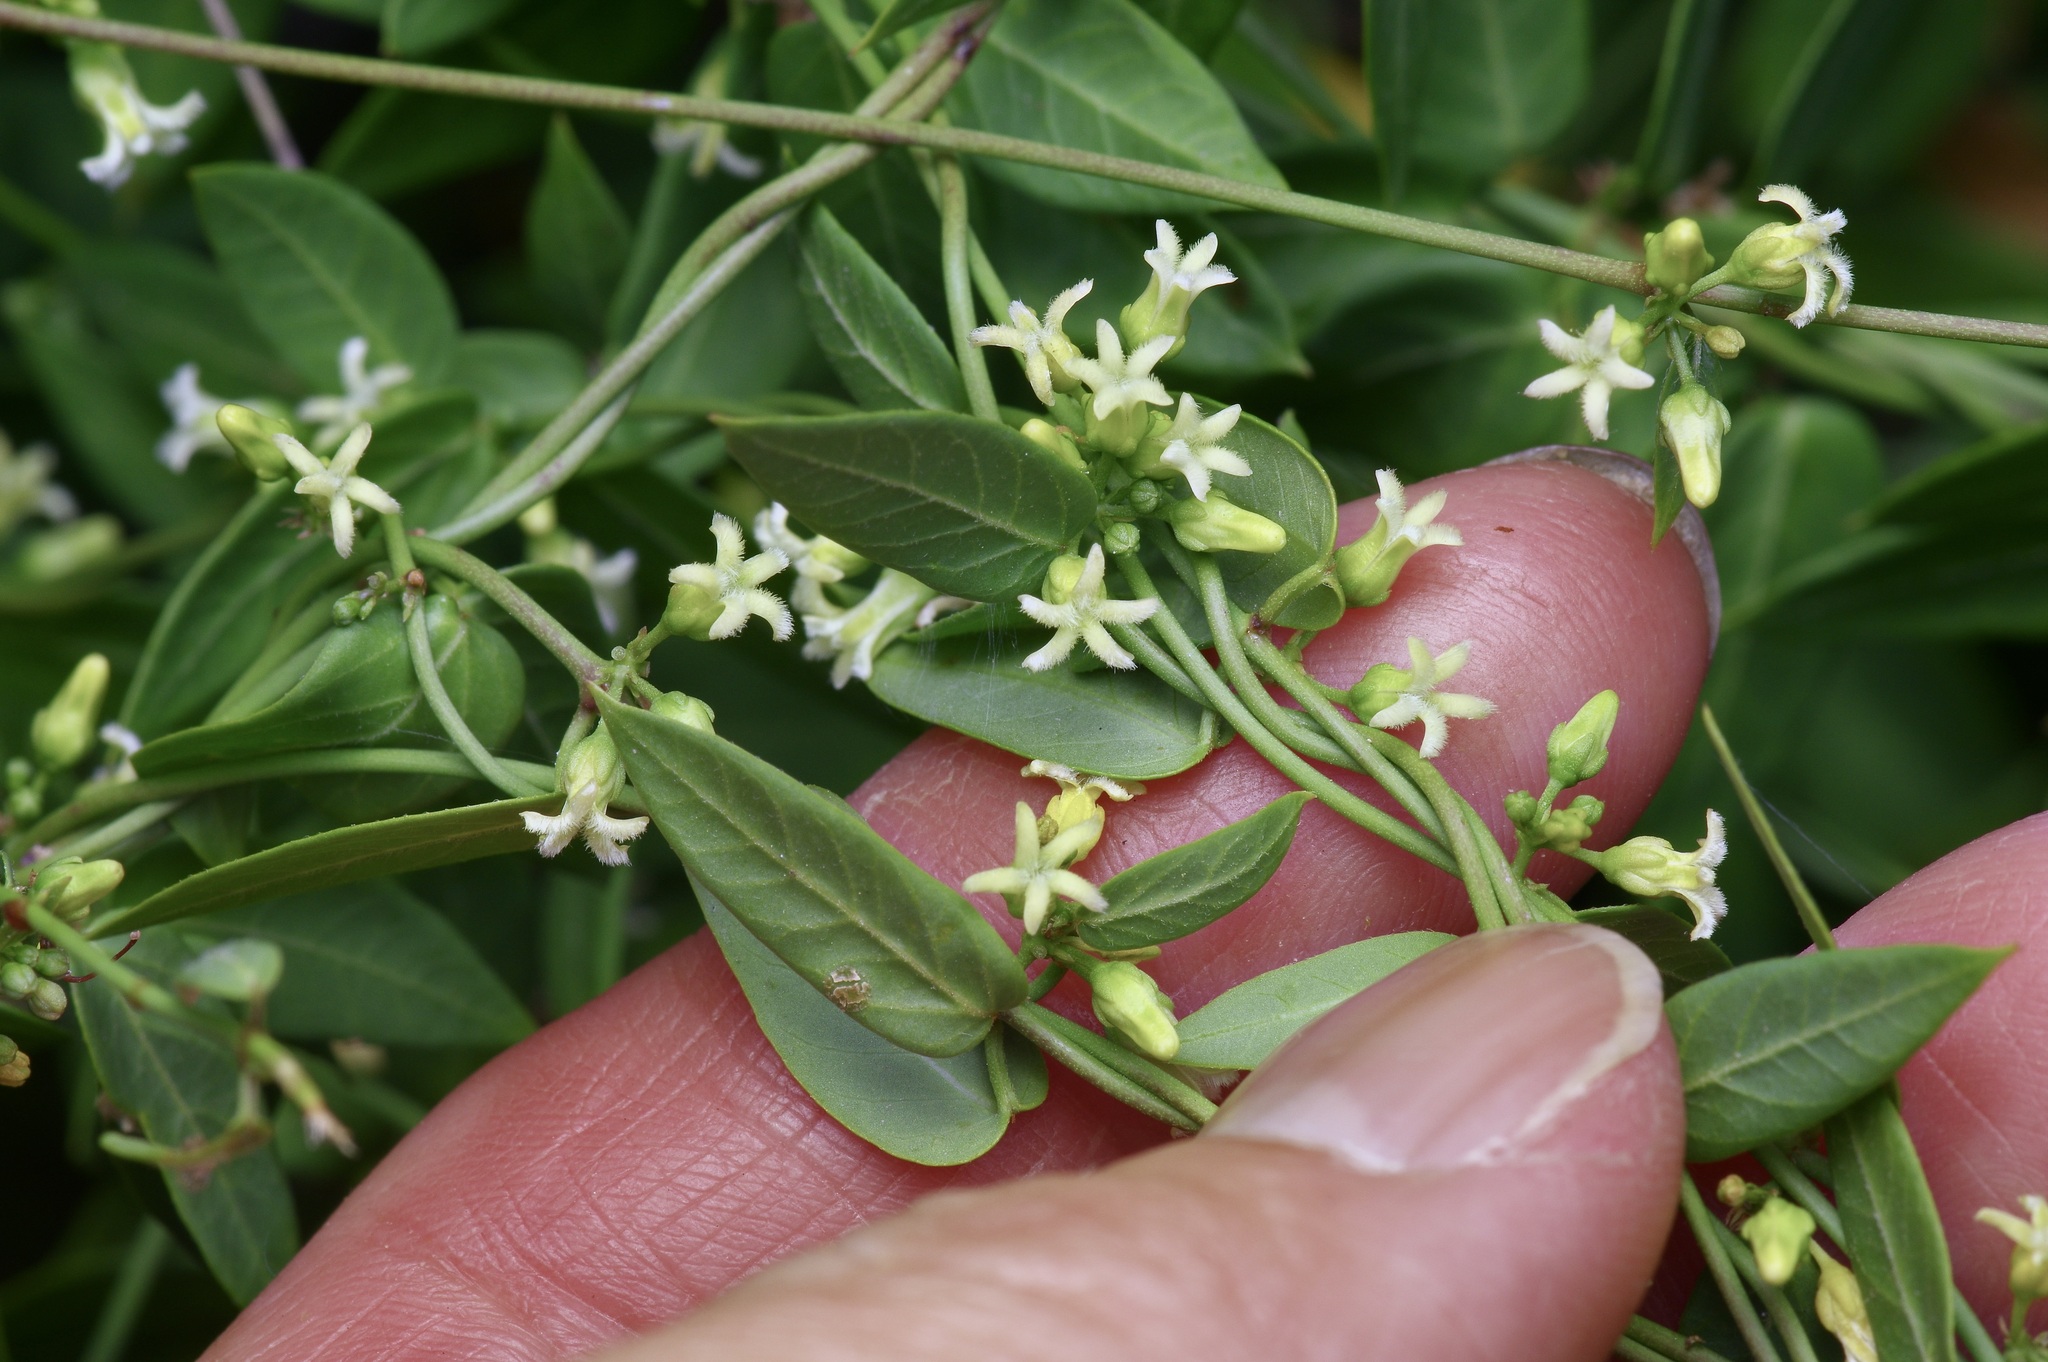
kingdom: Plantae
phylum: Tracheophyta
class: Magnoliopsida
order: Gentianales
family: Apocynaceae
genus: Metastelma
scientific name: Metastelma barbigerum
